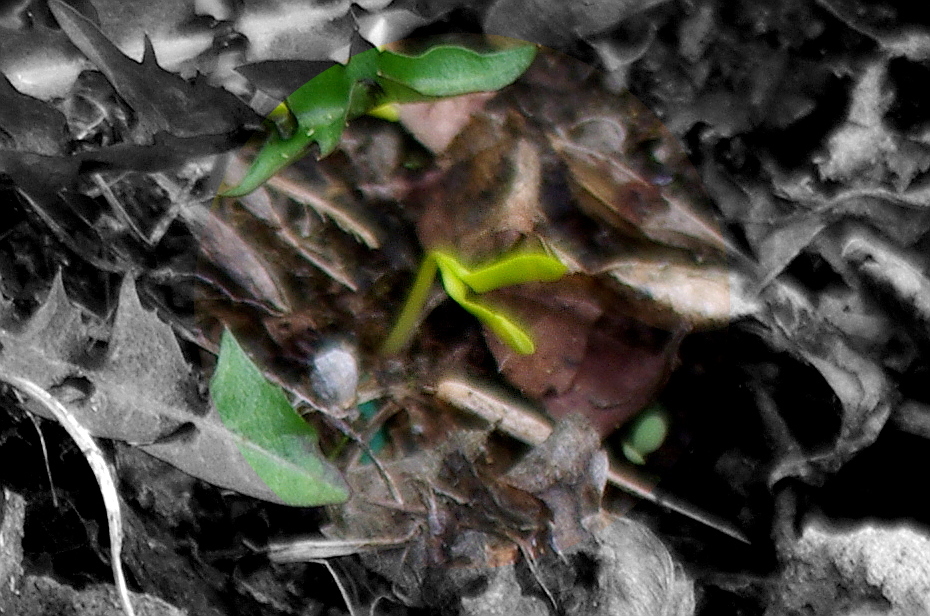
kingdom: Plantae
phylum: Tracheophyta
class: Magnoliopsida
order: Sapindales
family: Sapindaceae
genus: Acer
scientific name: Acer negundo
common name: Ashleaf maple
